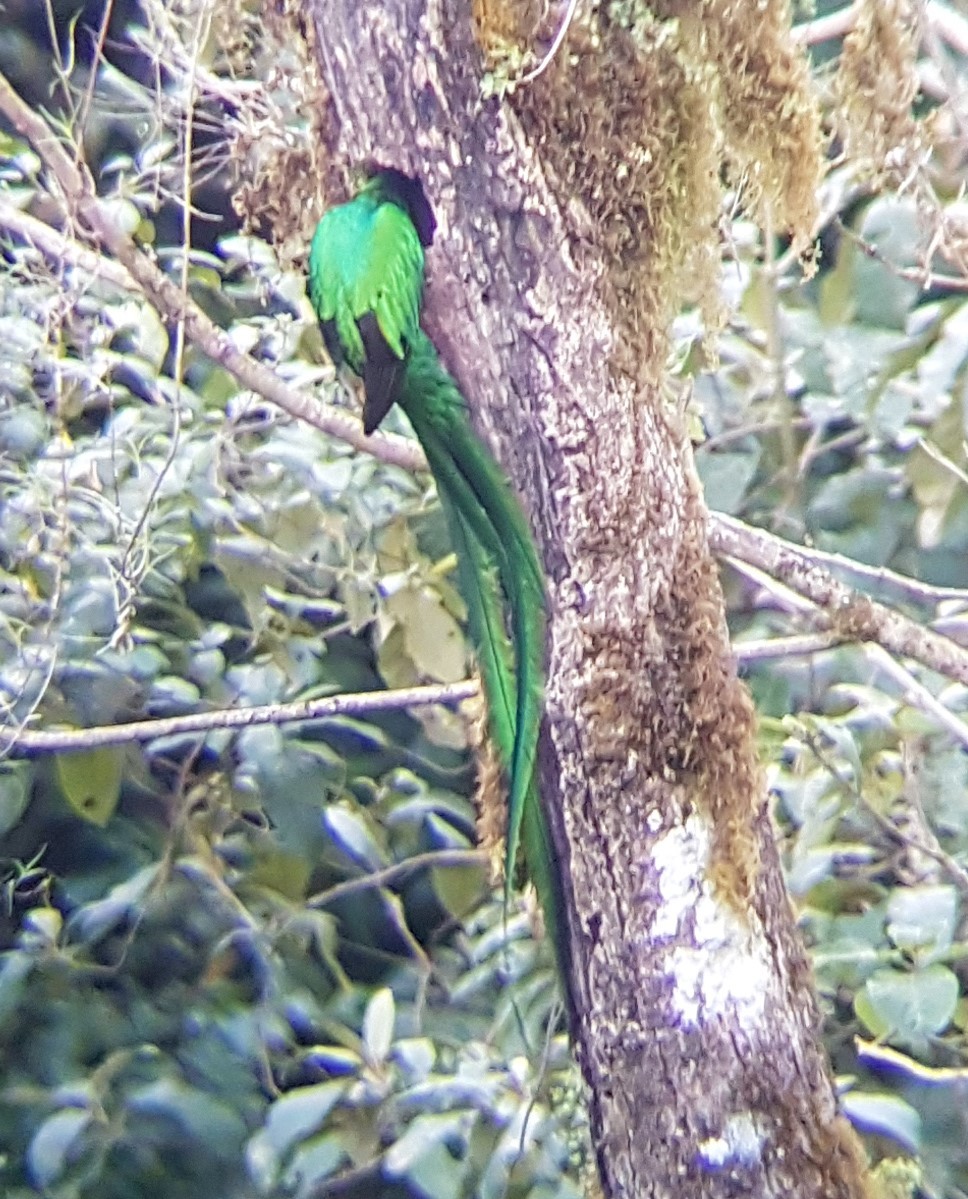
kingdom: Animalia
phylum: Chordata
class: Aves
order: Trogoniformes
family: Trogonidae
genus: Pharomachrus
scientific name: Pharomachrus mocinno
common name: Resplendent quetzal
